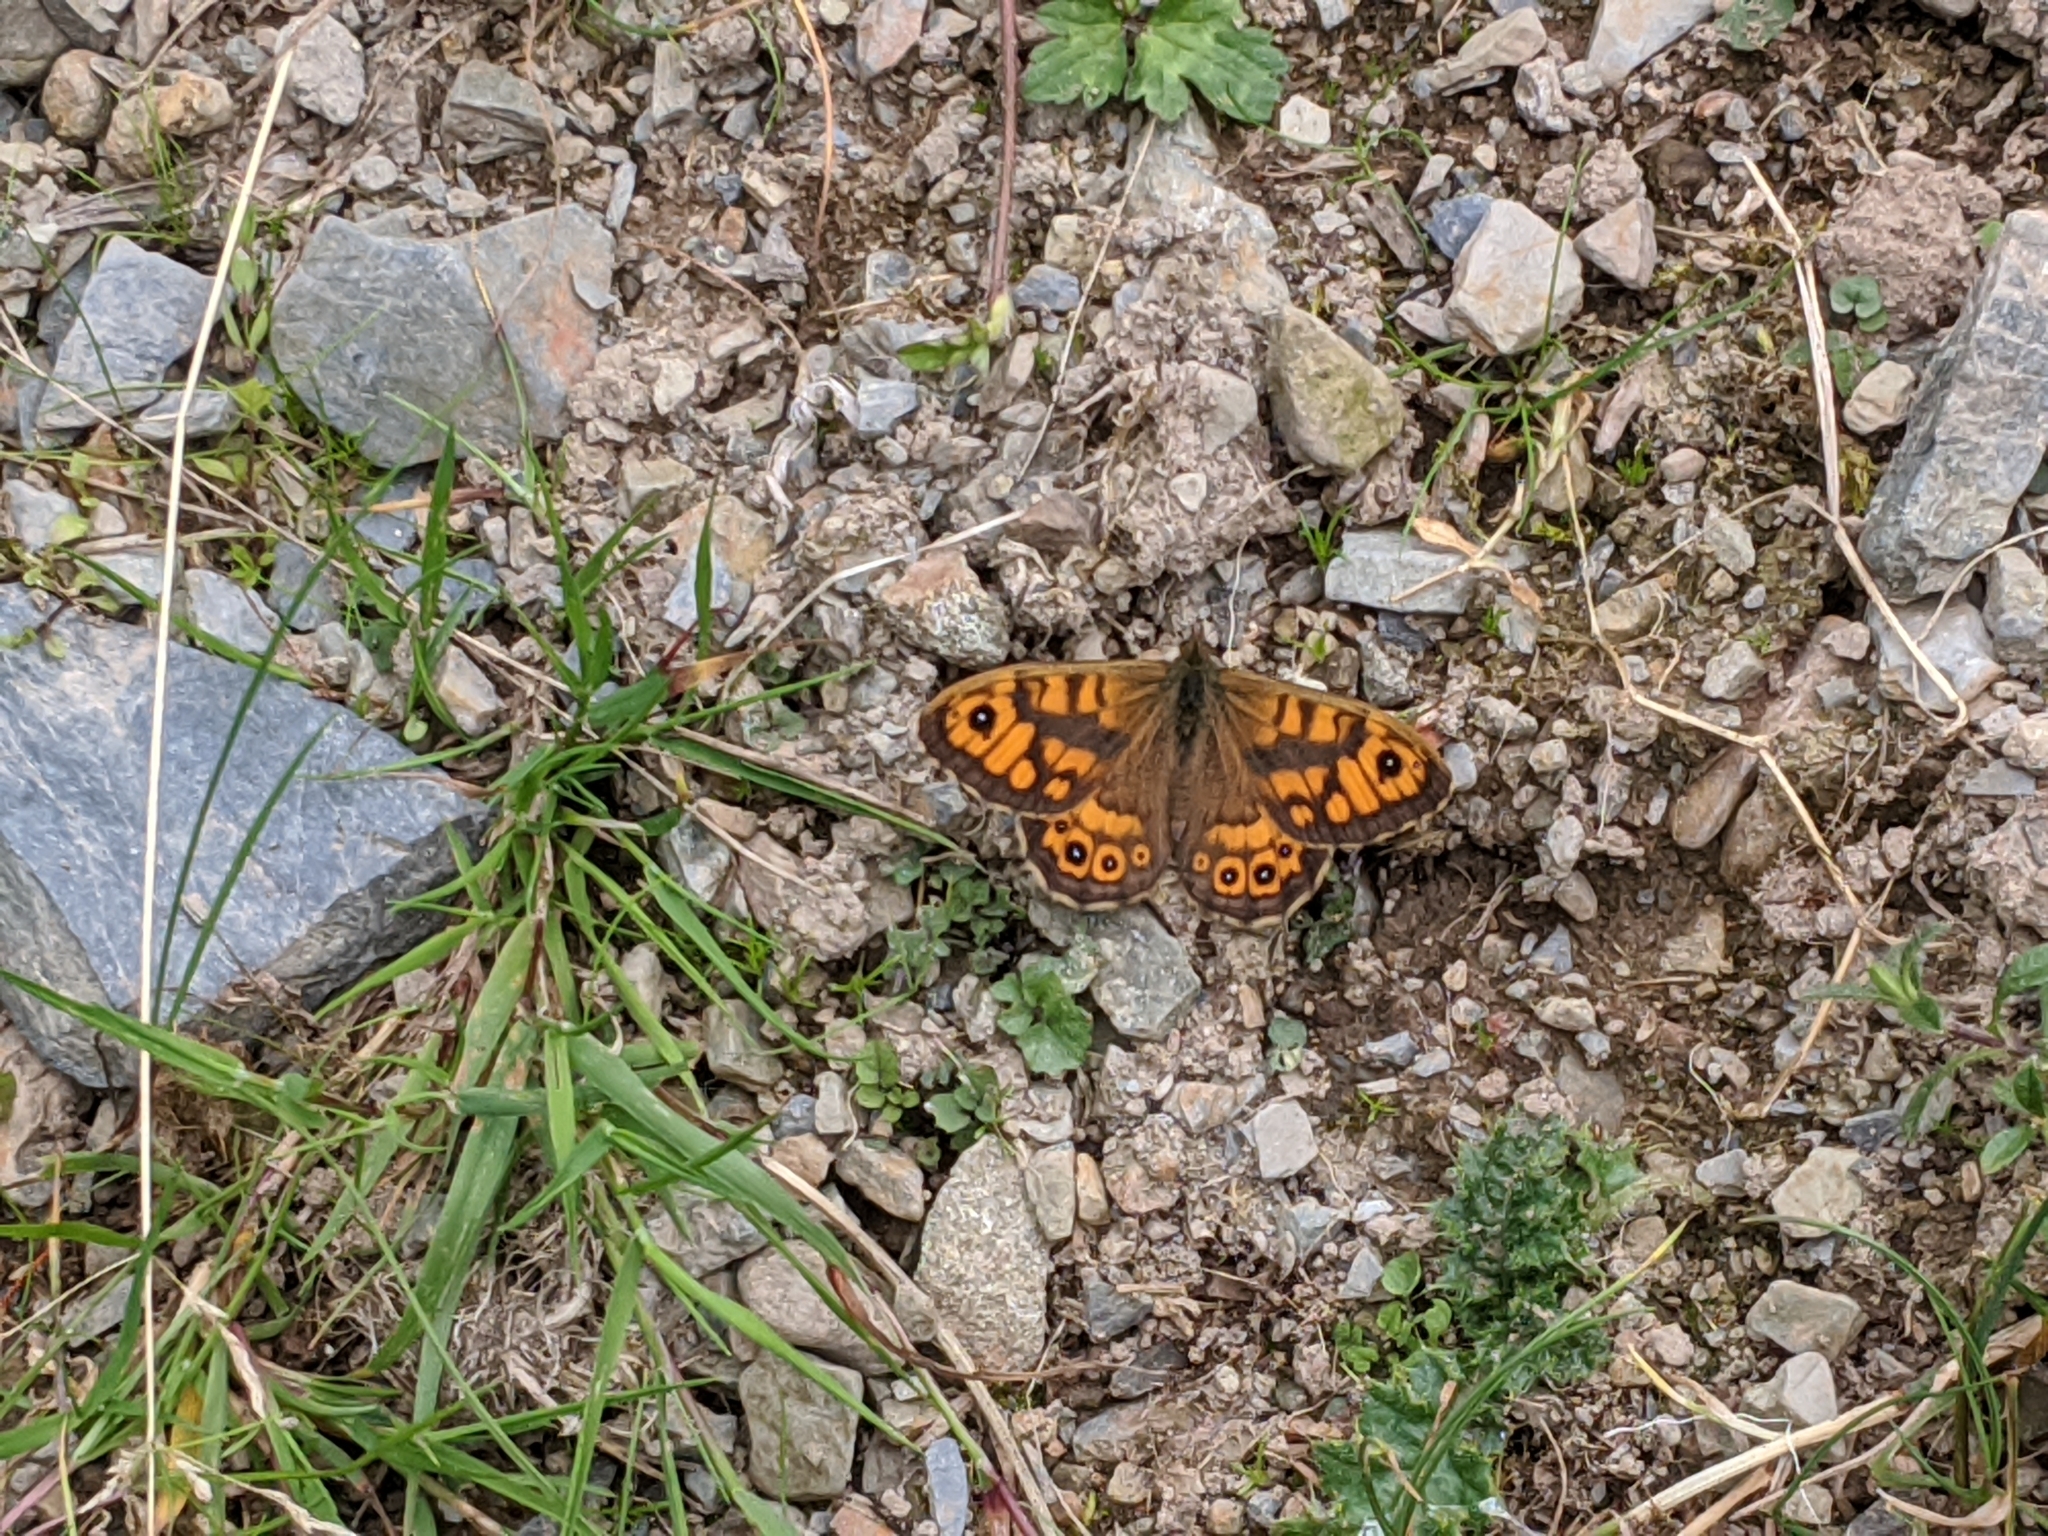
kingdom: Animalia
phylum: Arthropoda
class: Insecta
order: Lepidoptera
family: Nymphalidae
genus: Pararge
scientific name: Pararge Lasiommata megera
